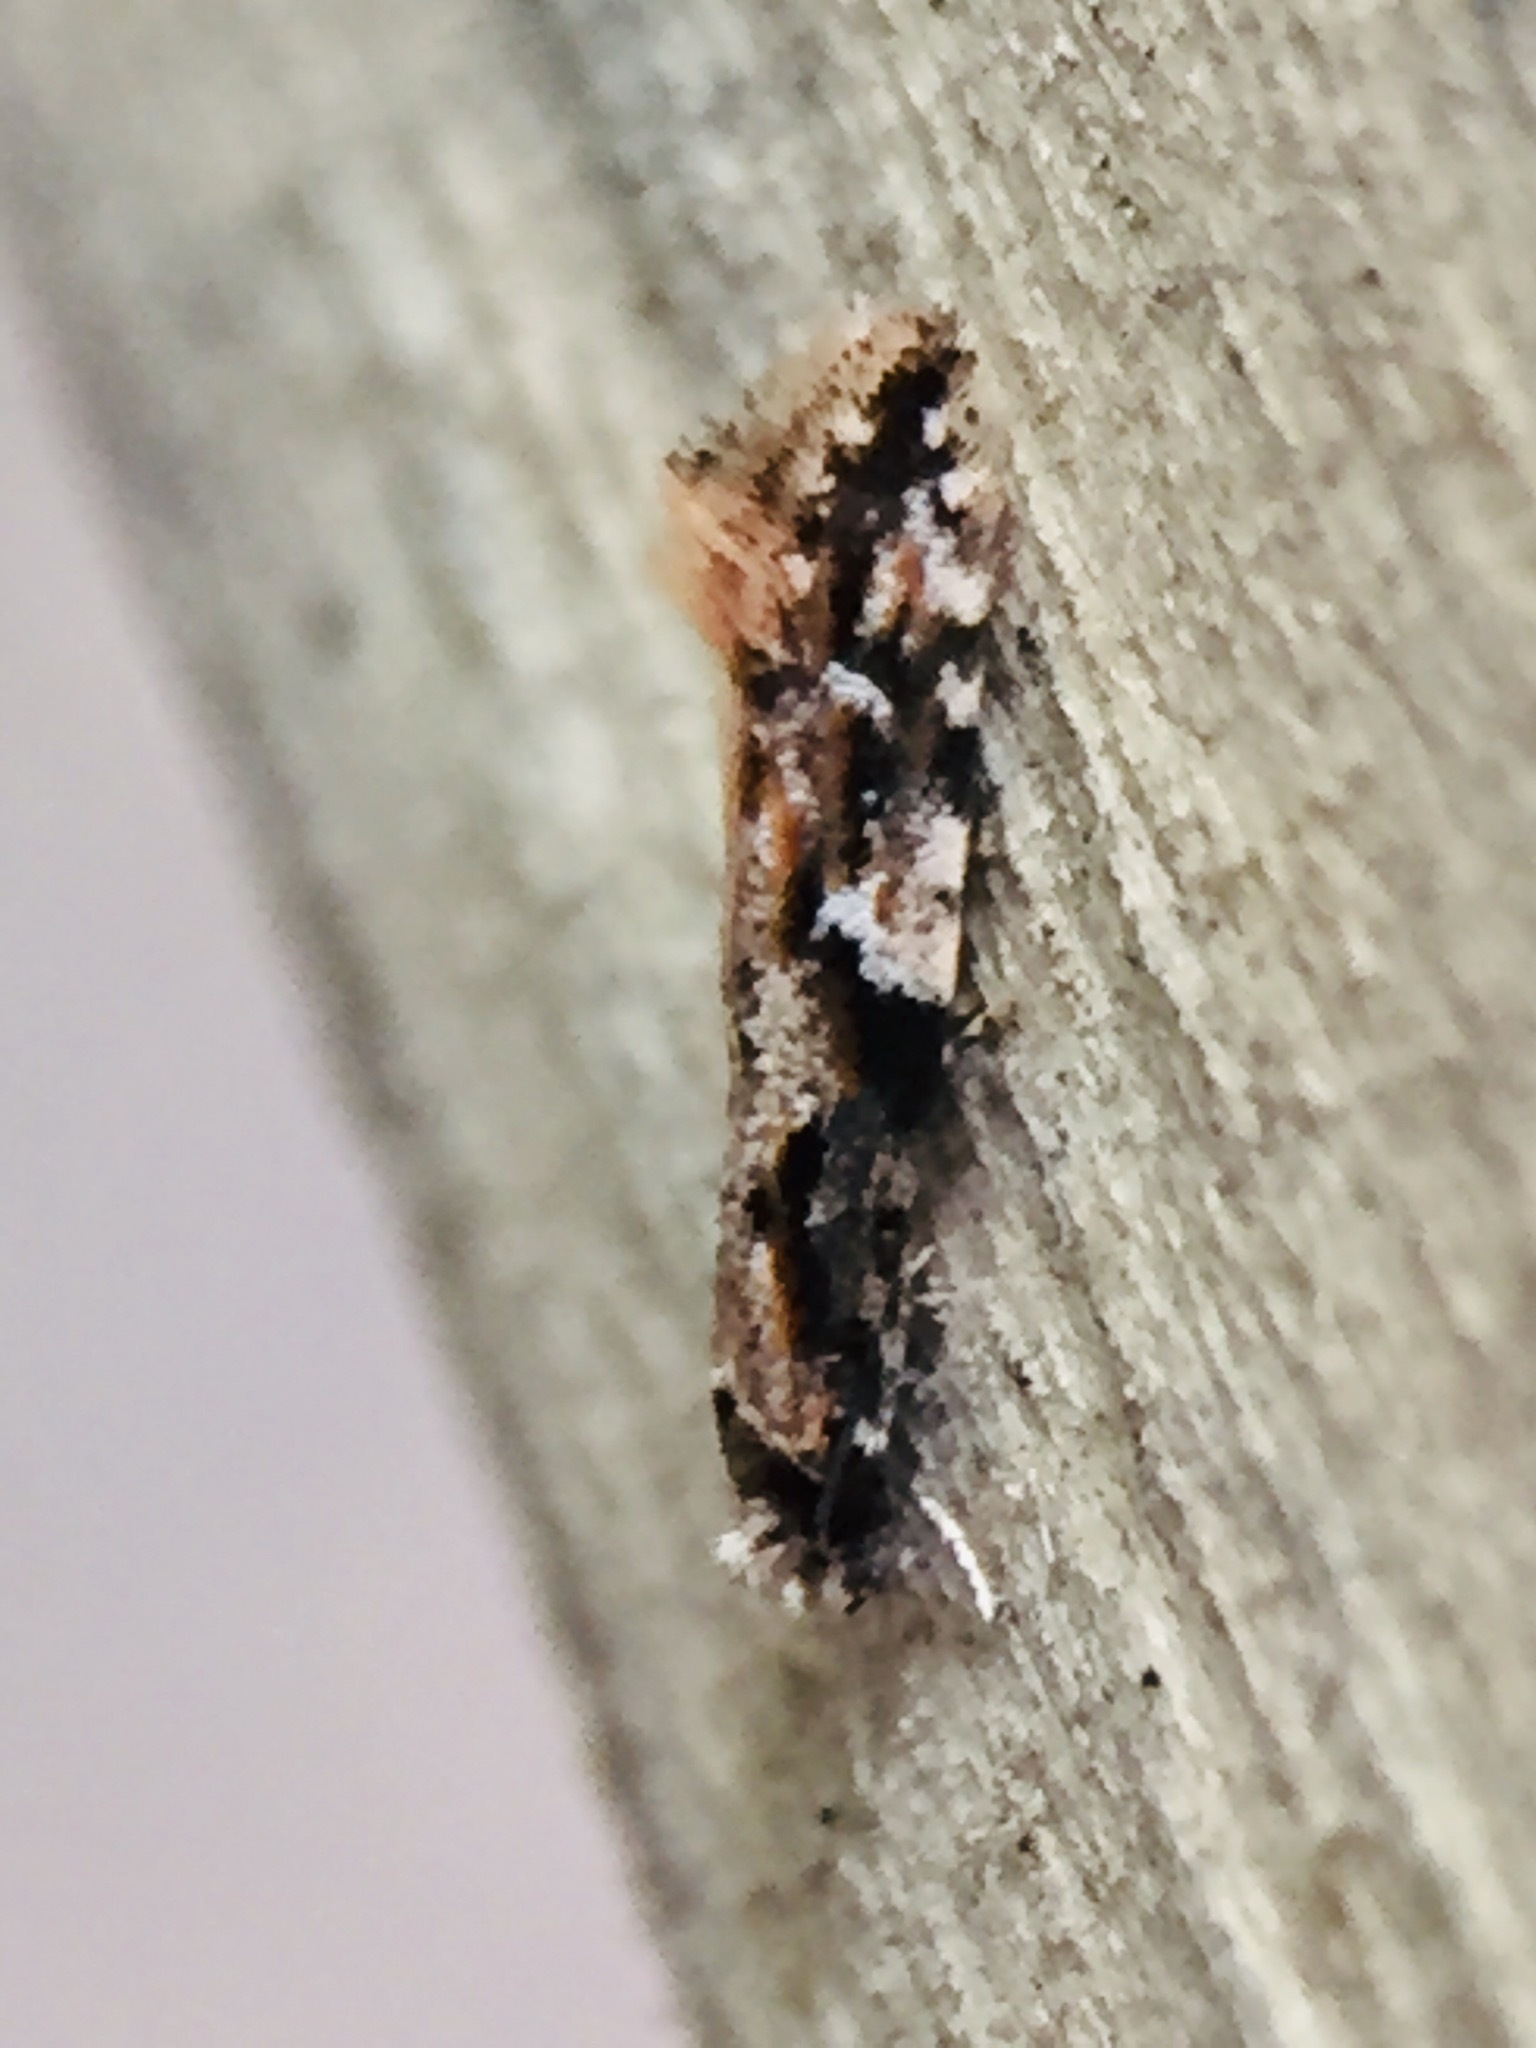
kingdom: Animalia
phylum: Arthropoda
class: Insecta
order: Lepidoptera
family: Tineidae
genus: Crypsitricha
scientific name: Crypsitricha agriopa
